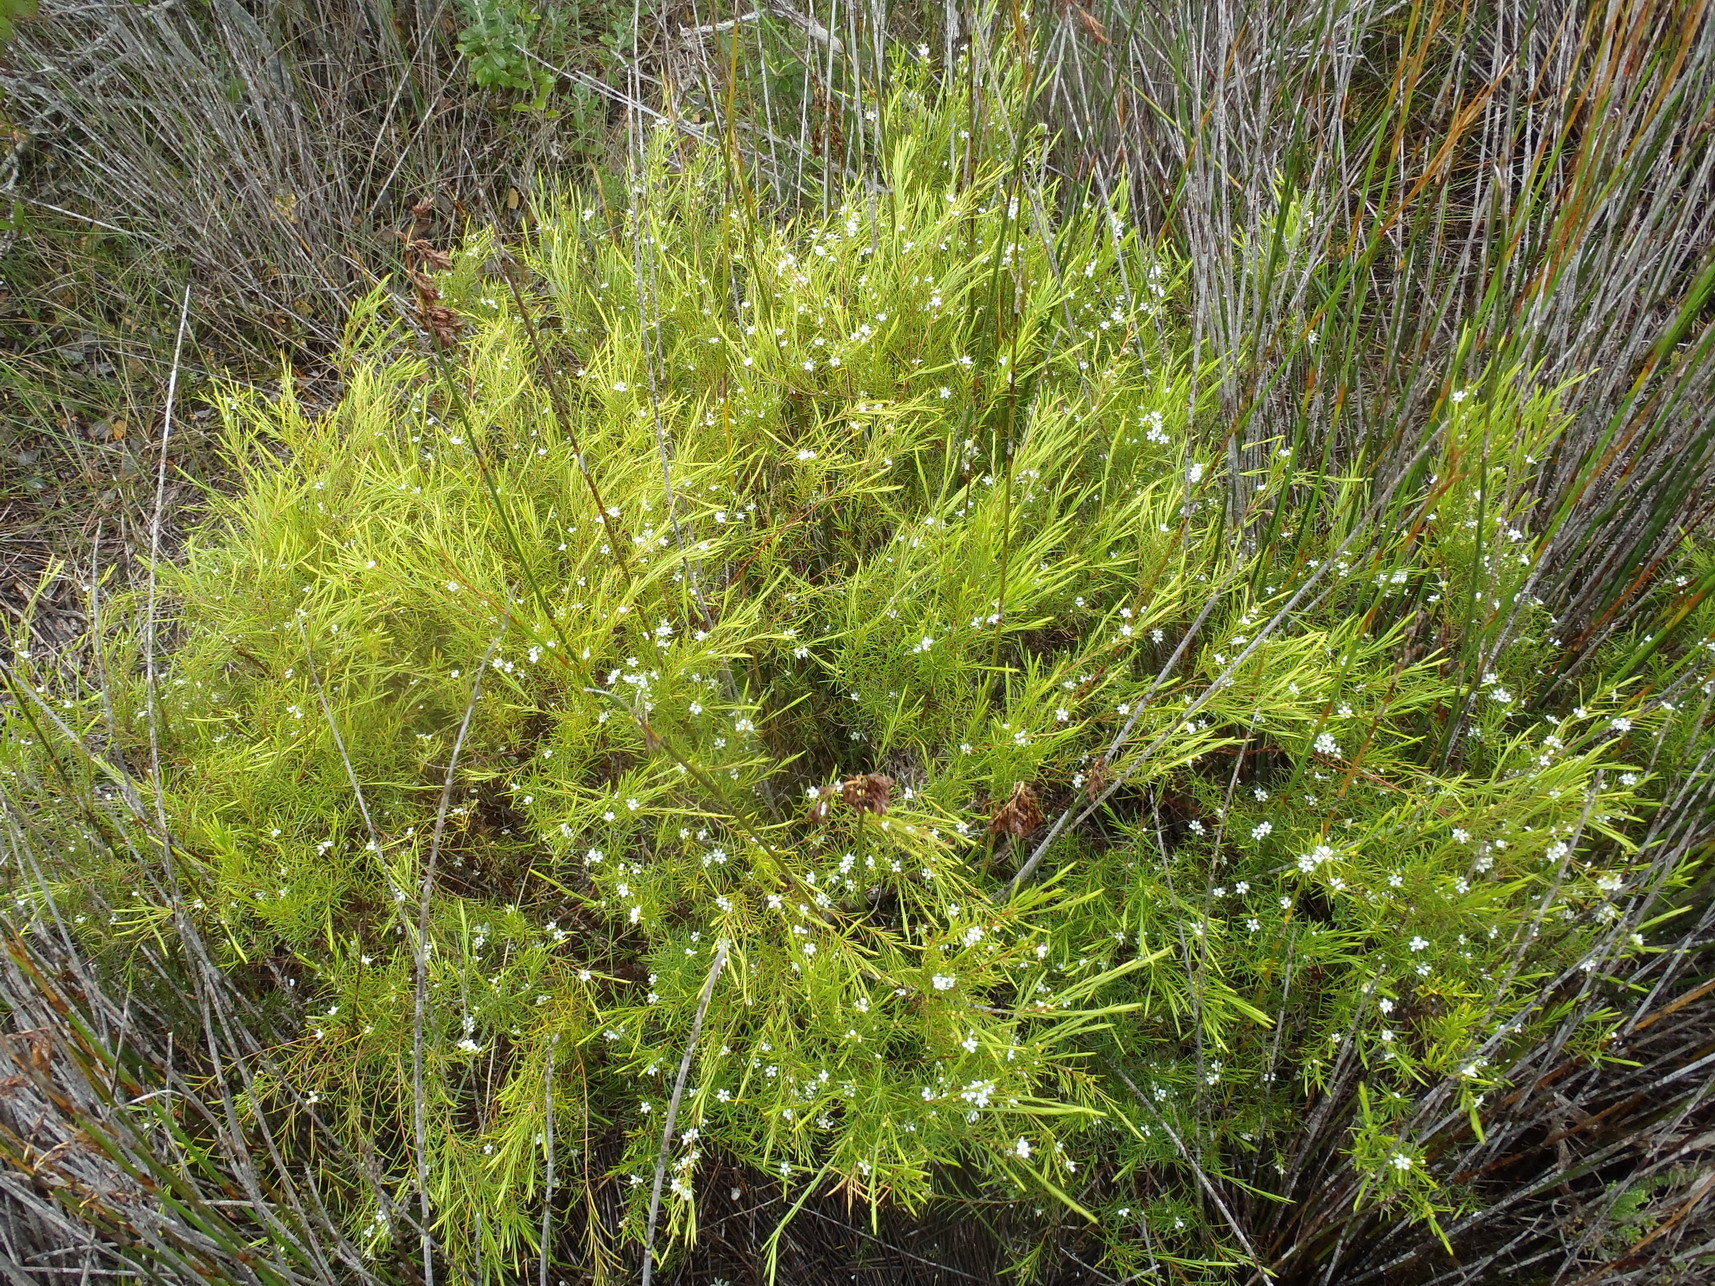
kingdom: Plantae
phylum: Tracheophyta
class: Magnoliopsida
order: Sapindales
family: Rutaceae
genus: Coleonema
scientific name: Coleonema album
